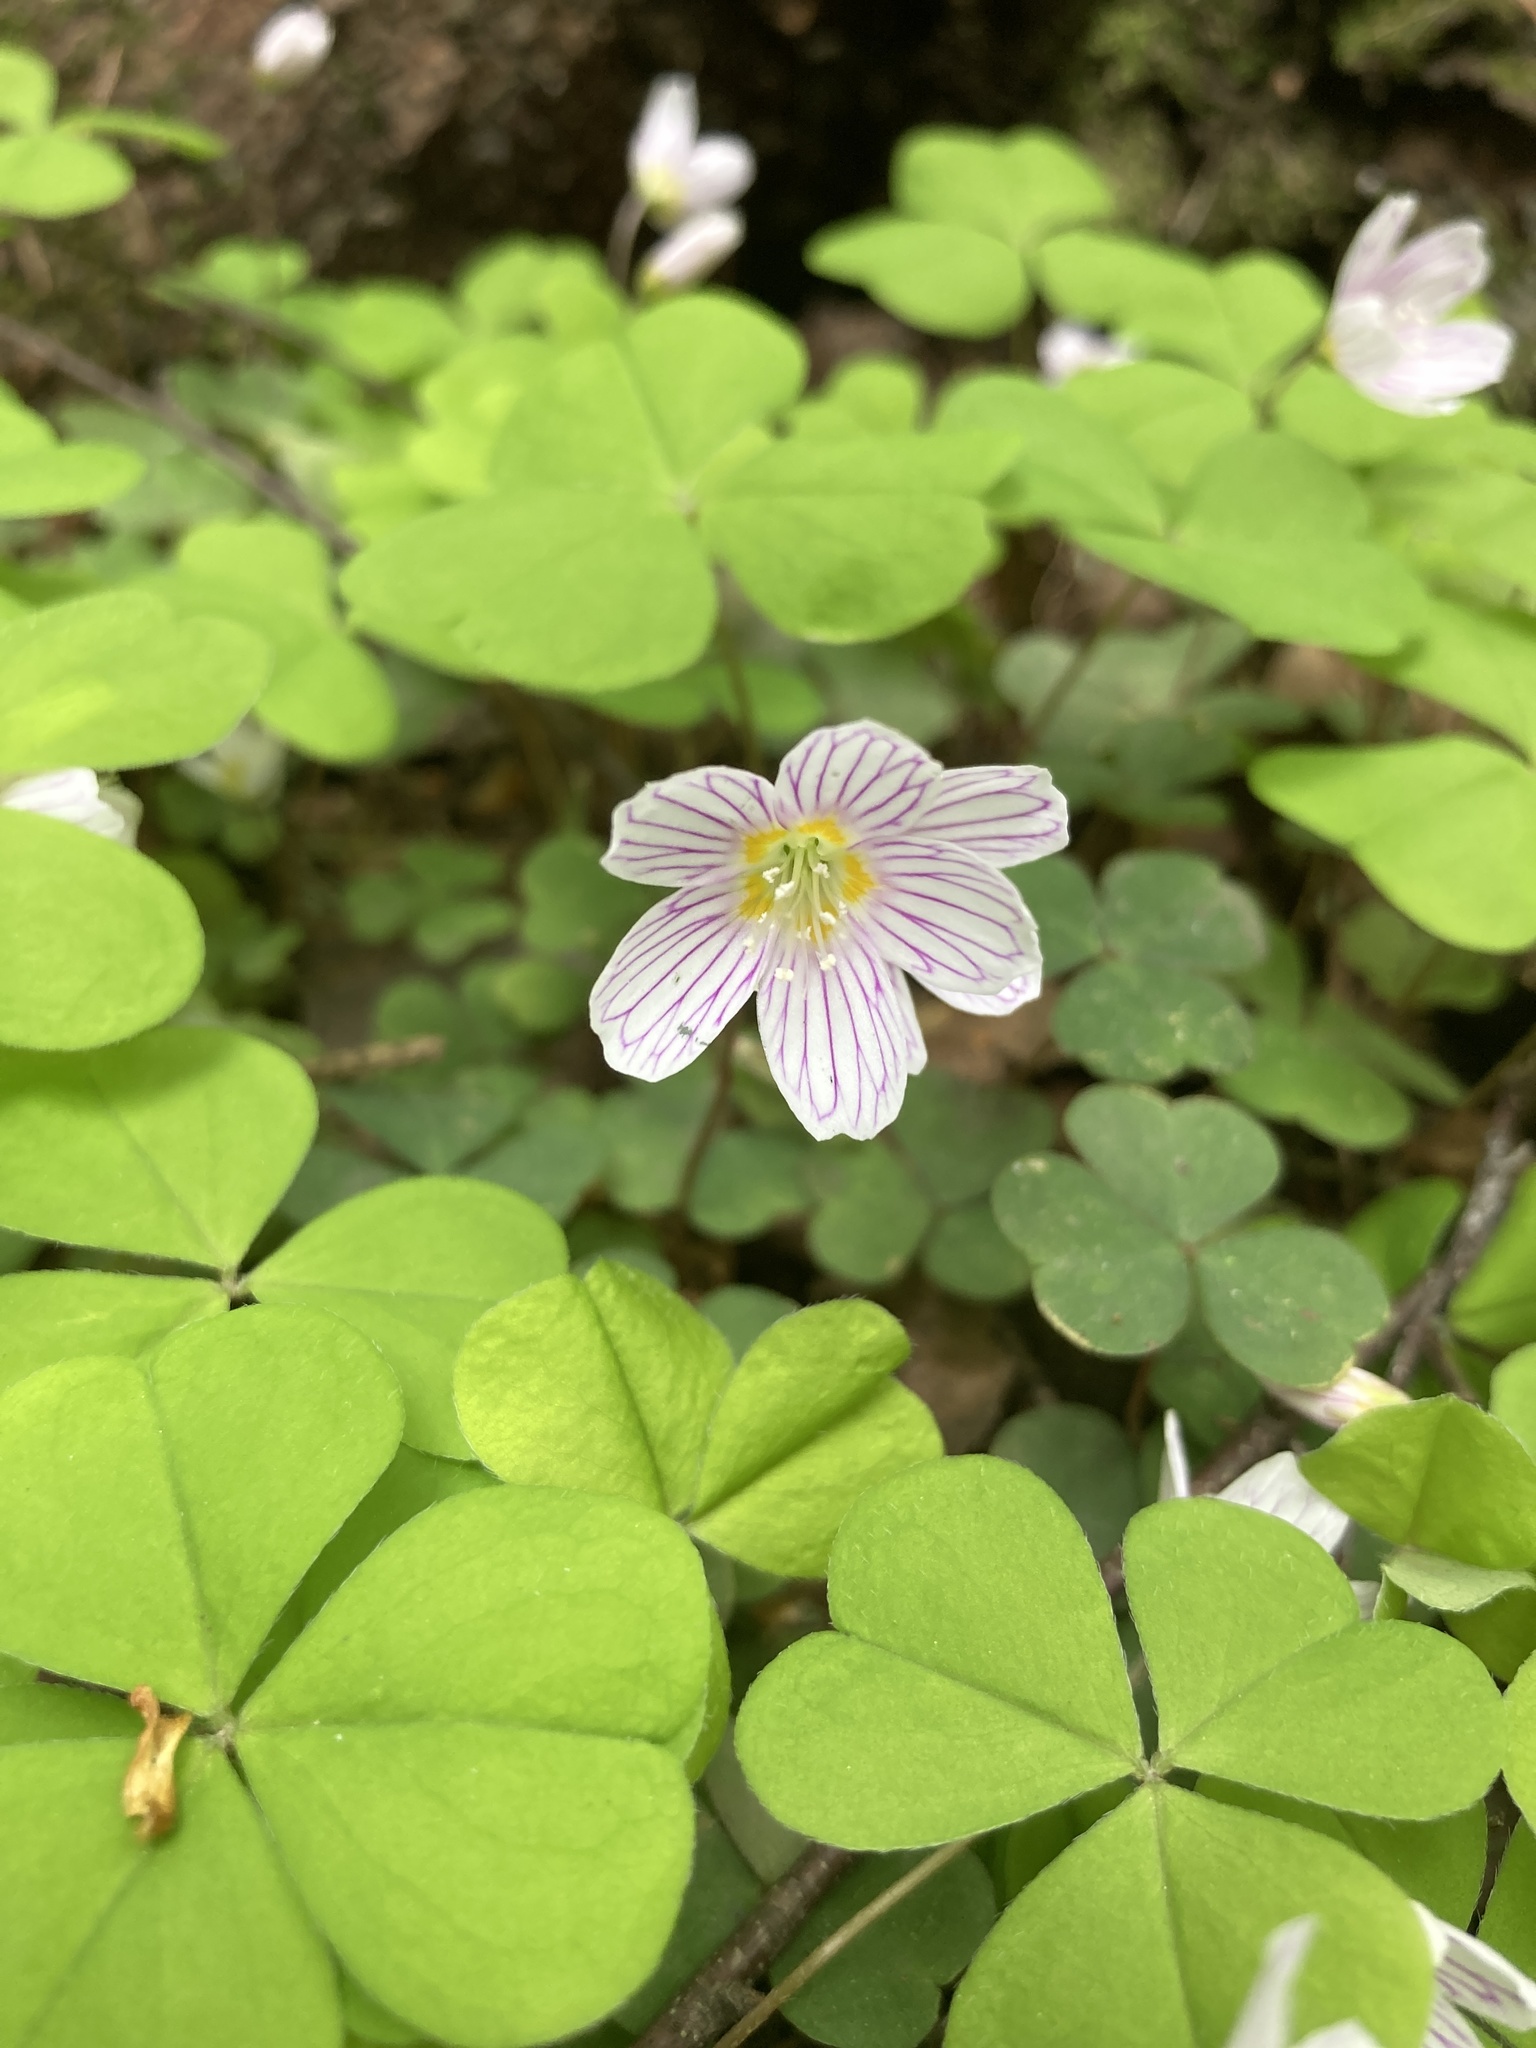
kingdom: Plantae
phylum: Tracheophyta
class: Magnoliopsida
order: Oxalidales
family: Oxalidaceae
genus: Oxalis
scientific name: Oxalis acetosella
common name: Wood-sorrel
